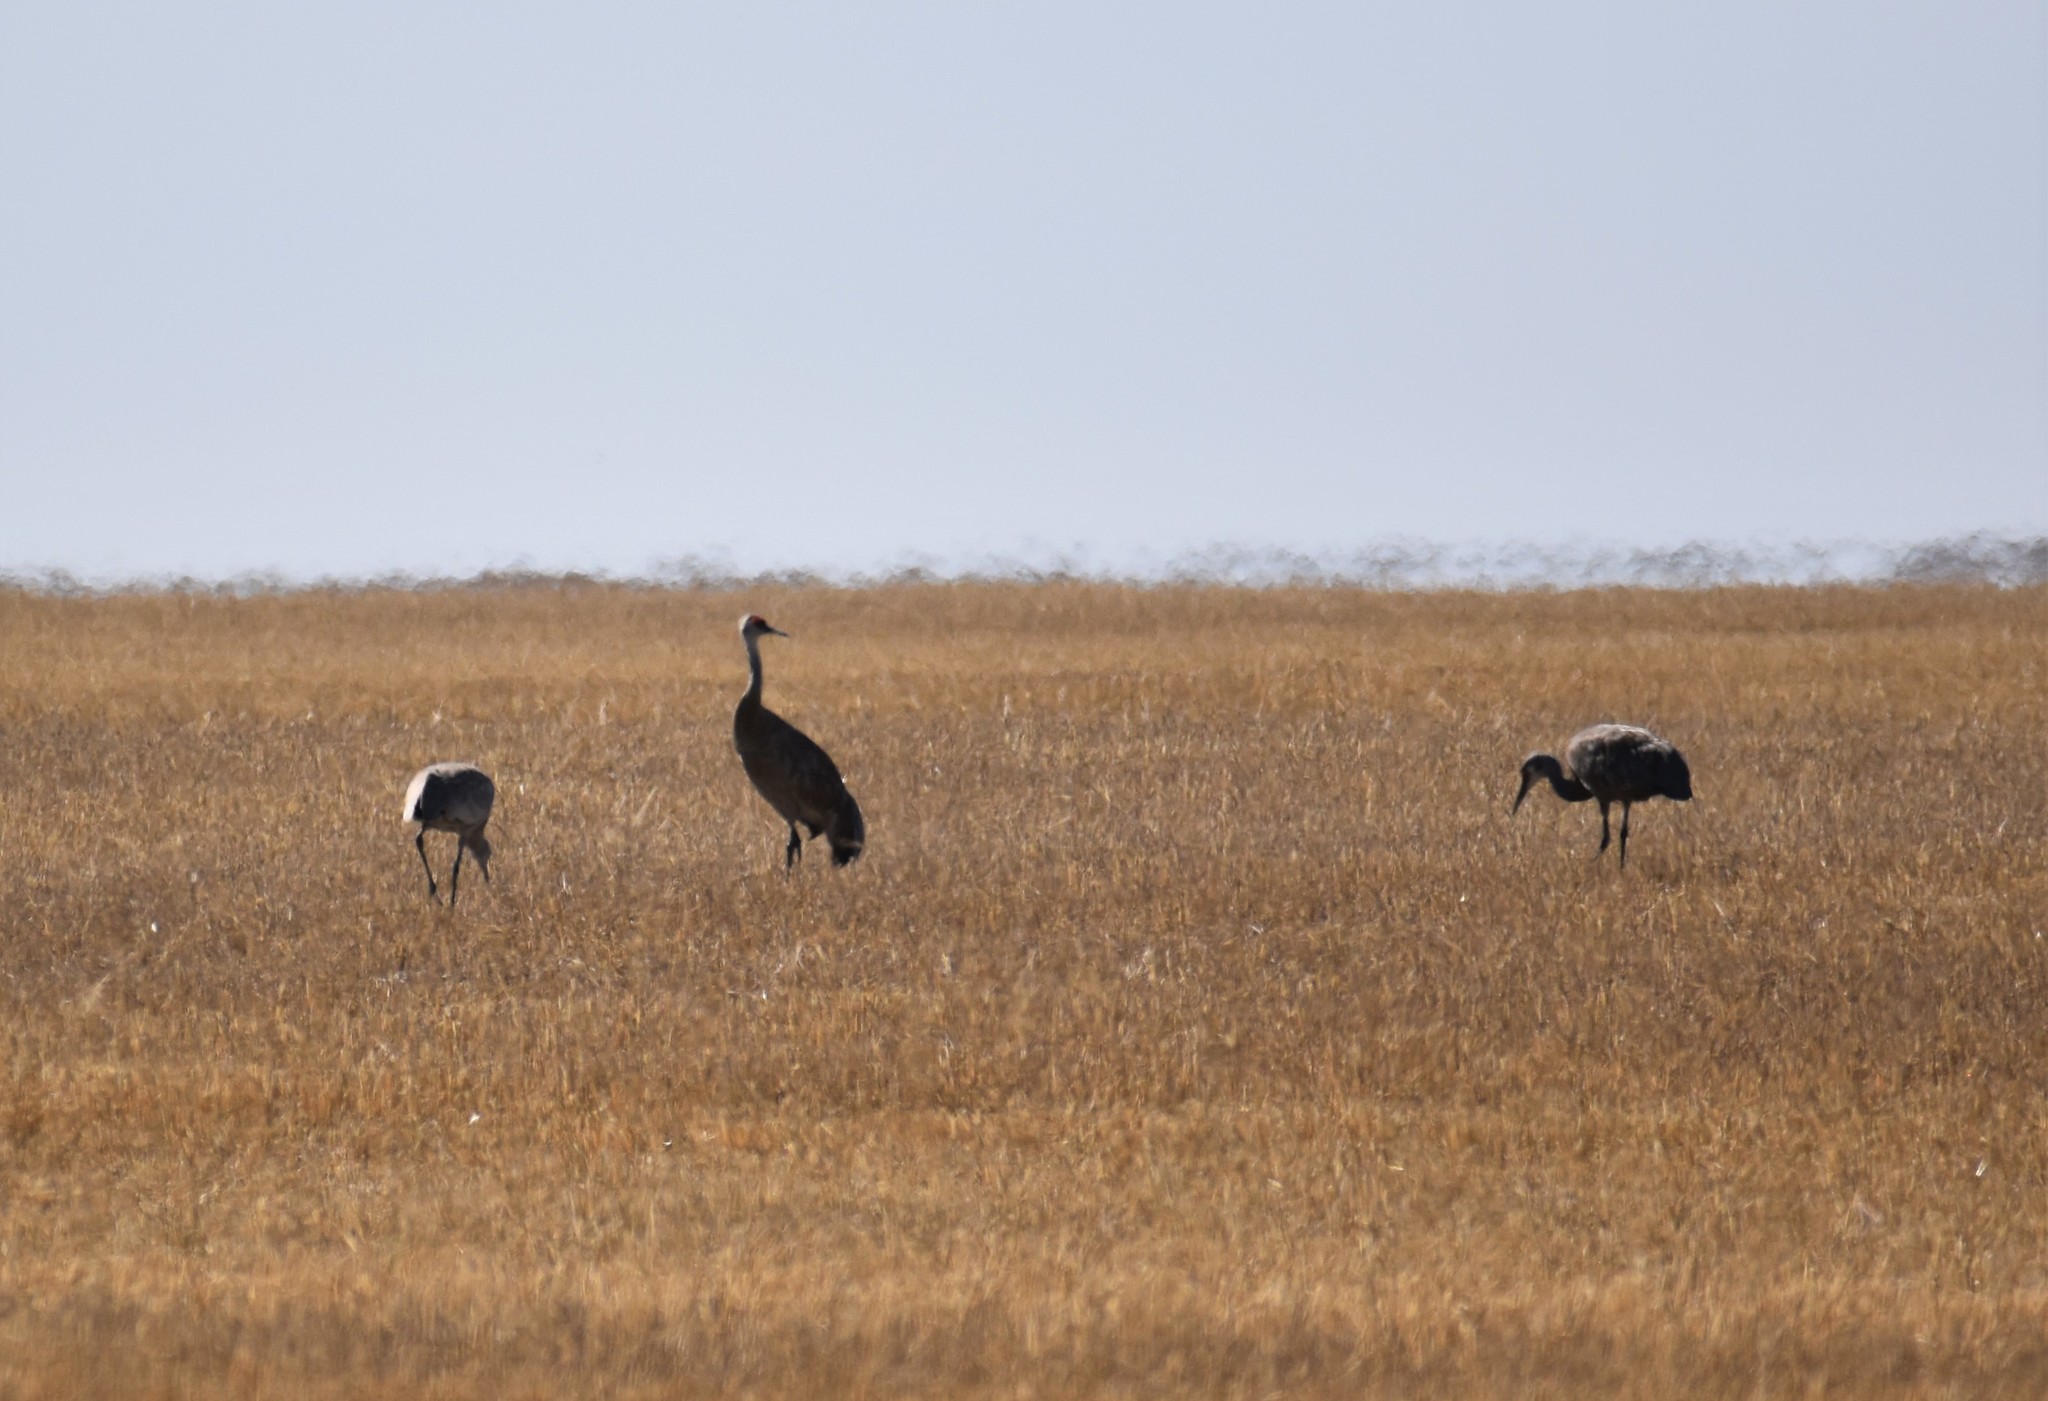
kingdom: Animalia
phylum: Chordata
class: Aves
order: Gruiformes
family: Gruidae
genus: Grus
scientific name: Grus canadensis
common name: Sandhill crane
